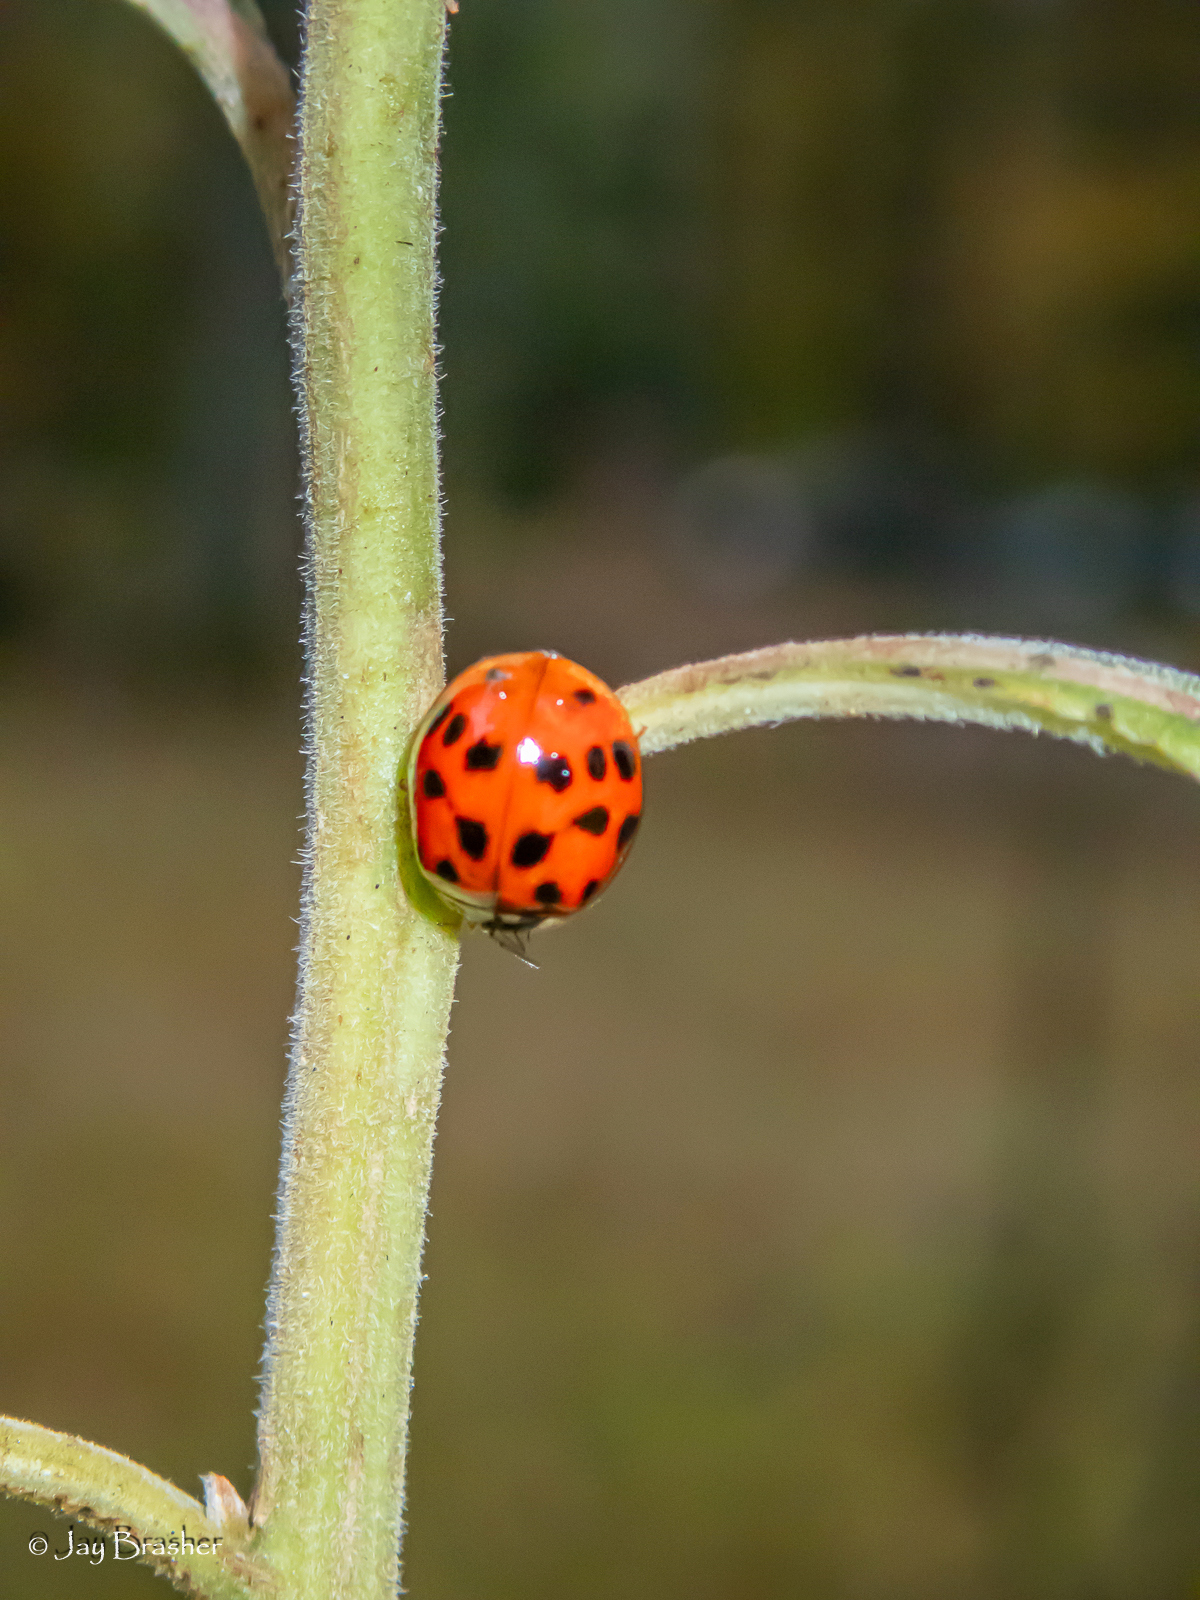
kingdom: Animalia
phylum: Arthropoda
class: Insecta
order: Coleoptera
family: Coccinellidae
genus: Harmonia
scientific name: Harmonia axyridis
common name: Harlequin ladybird
